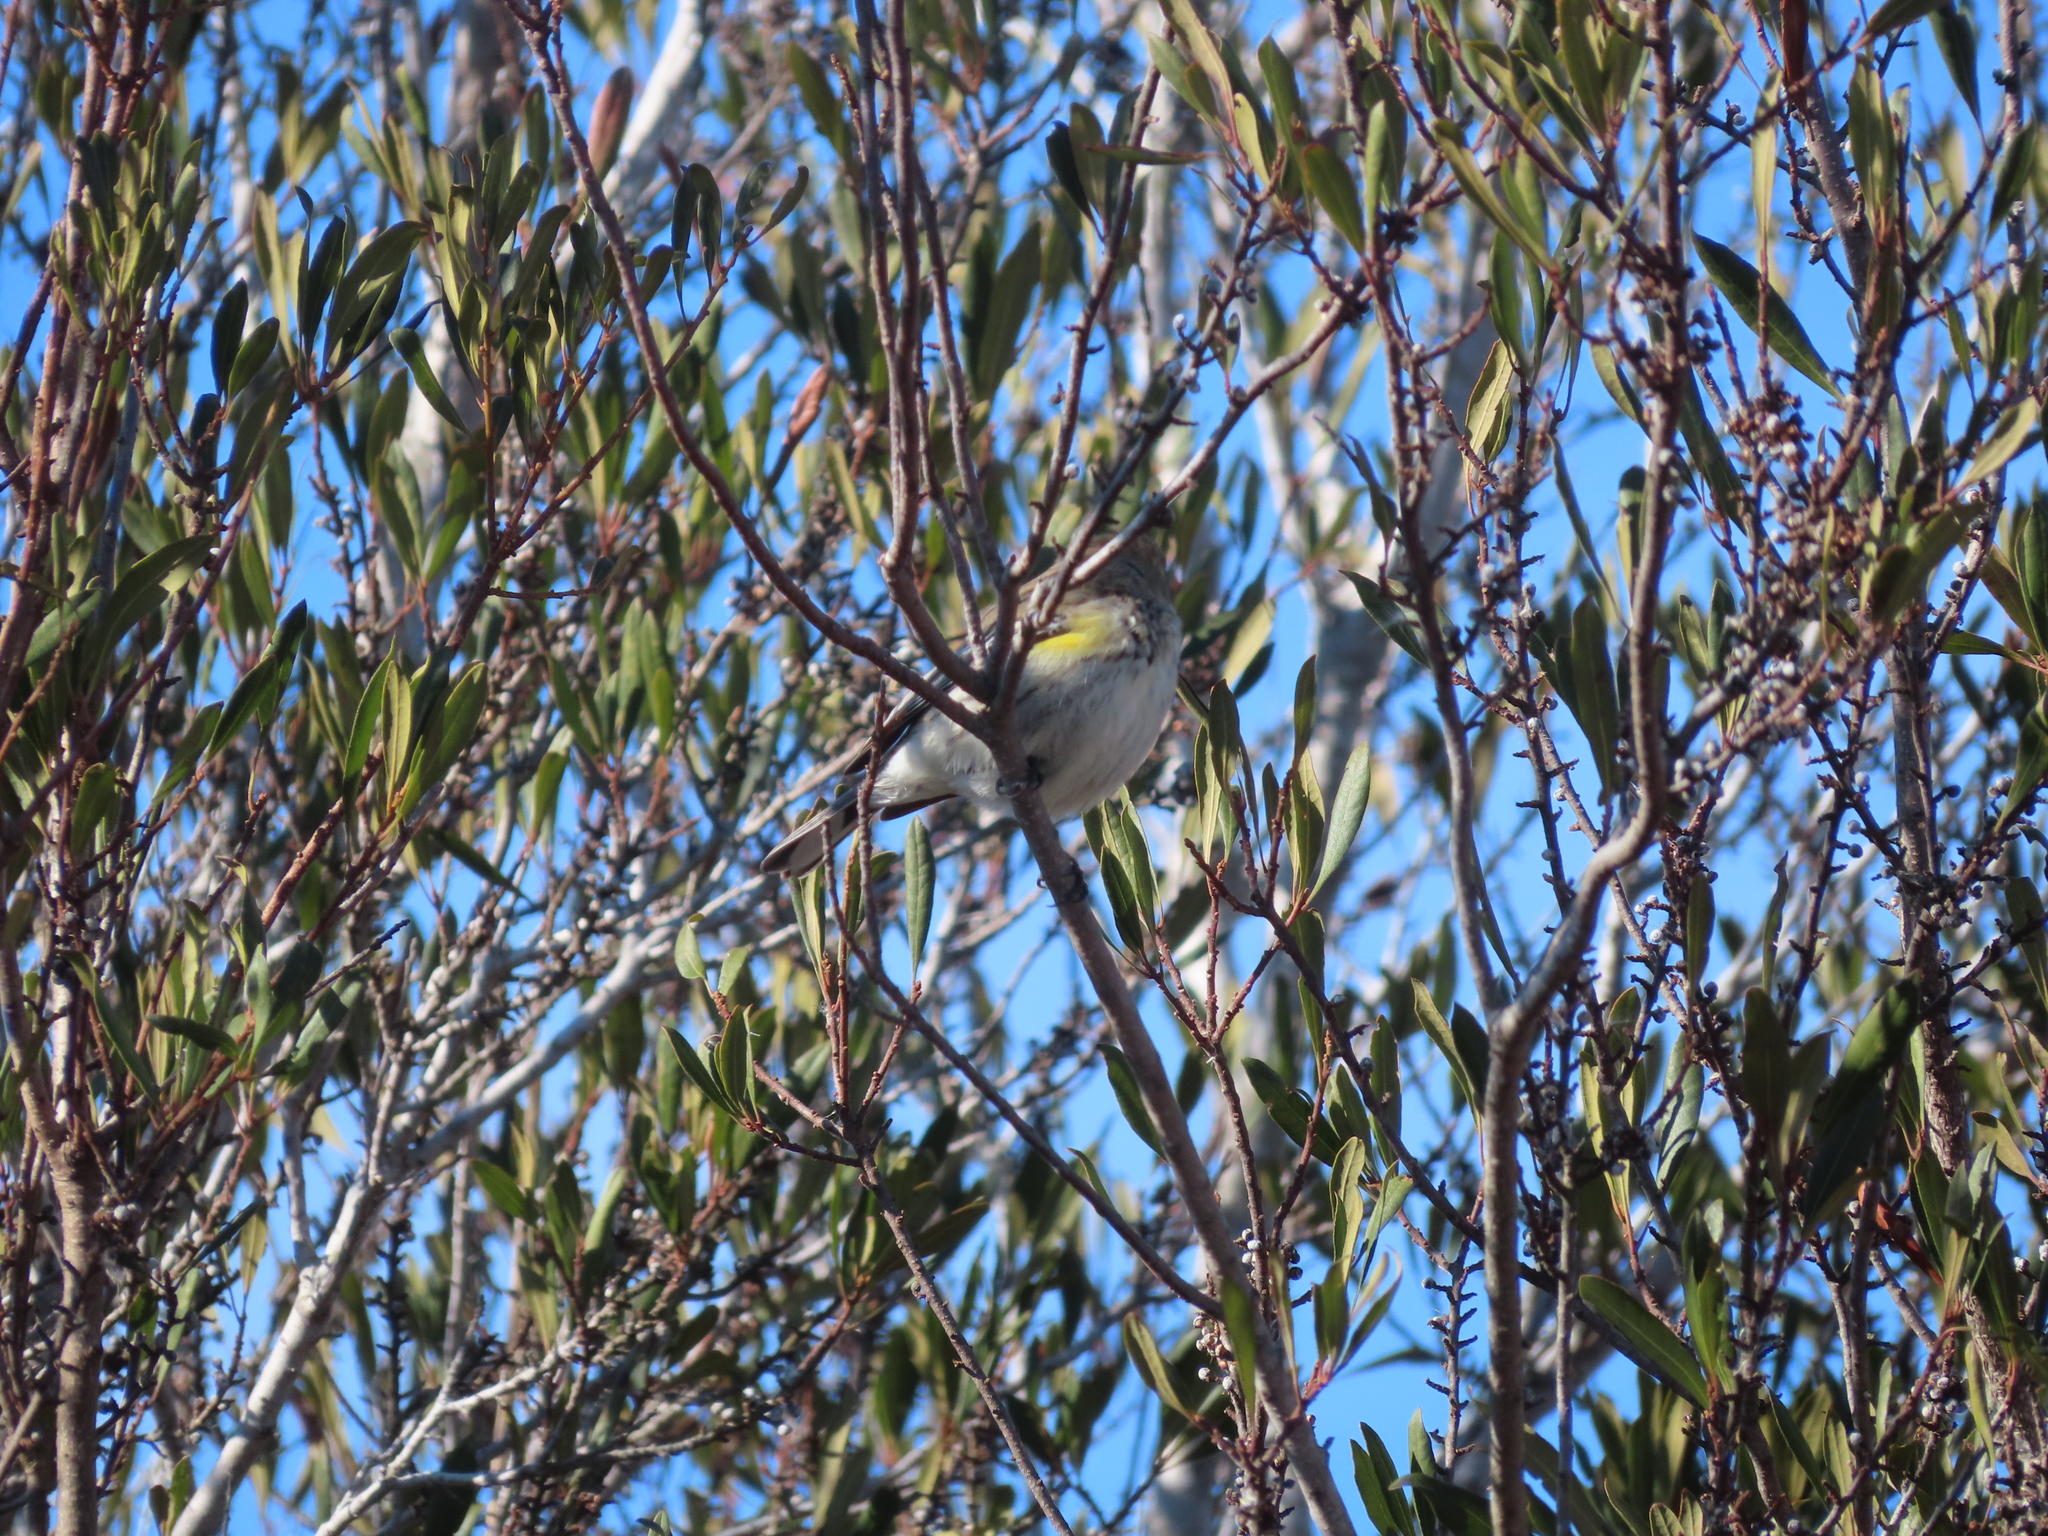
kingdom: Animalia
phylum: Chordata
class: Aves
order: Passeriformes
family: Parulidae
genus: Setophaga
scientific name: Setophaga coronata
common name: Myrtle warbler
